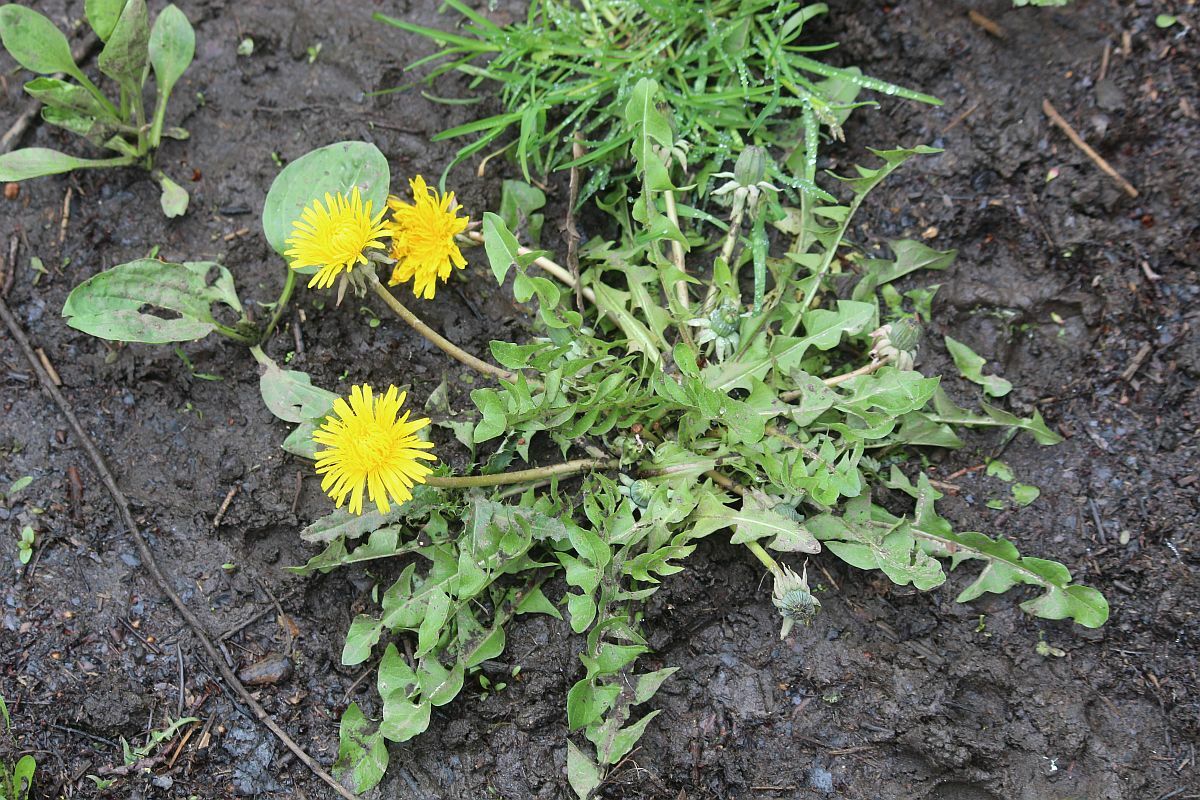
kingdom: Plantae
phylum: Tracheophyta
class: Magnoliopsida
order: Asterales
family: Asteraceae
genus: Taraxacum
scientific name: Taraxacum officinale
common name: Common dandelion
